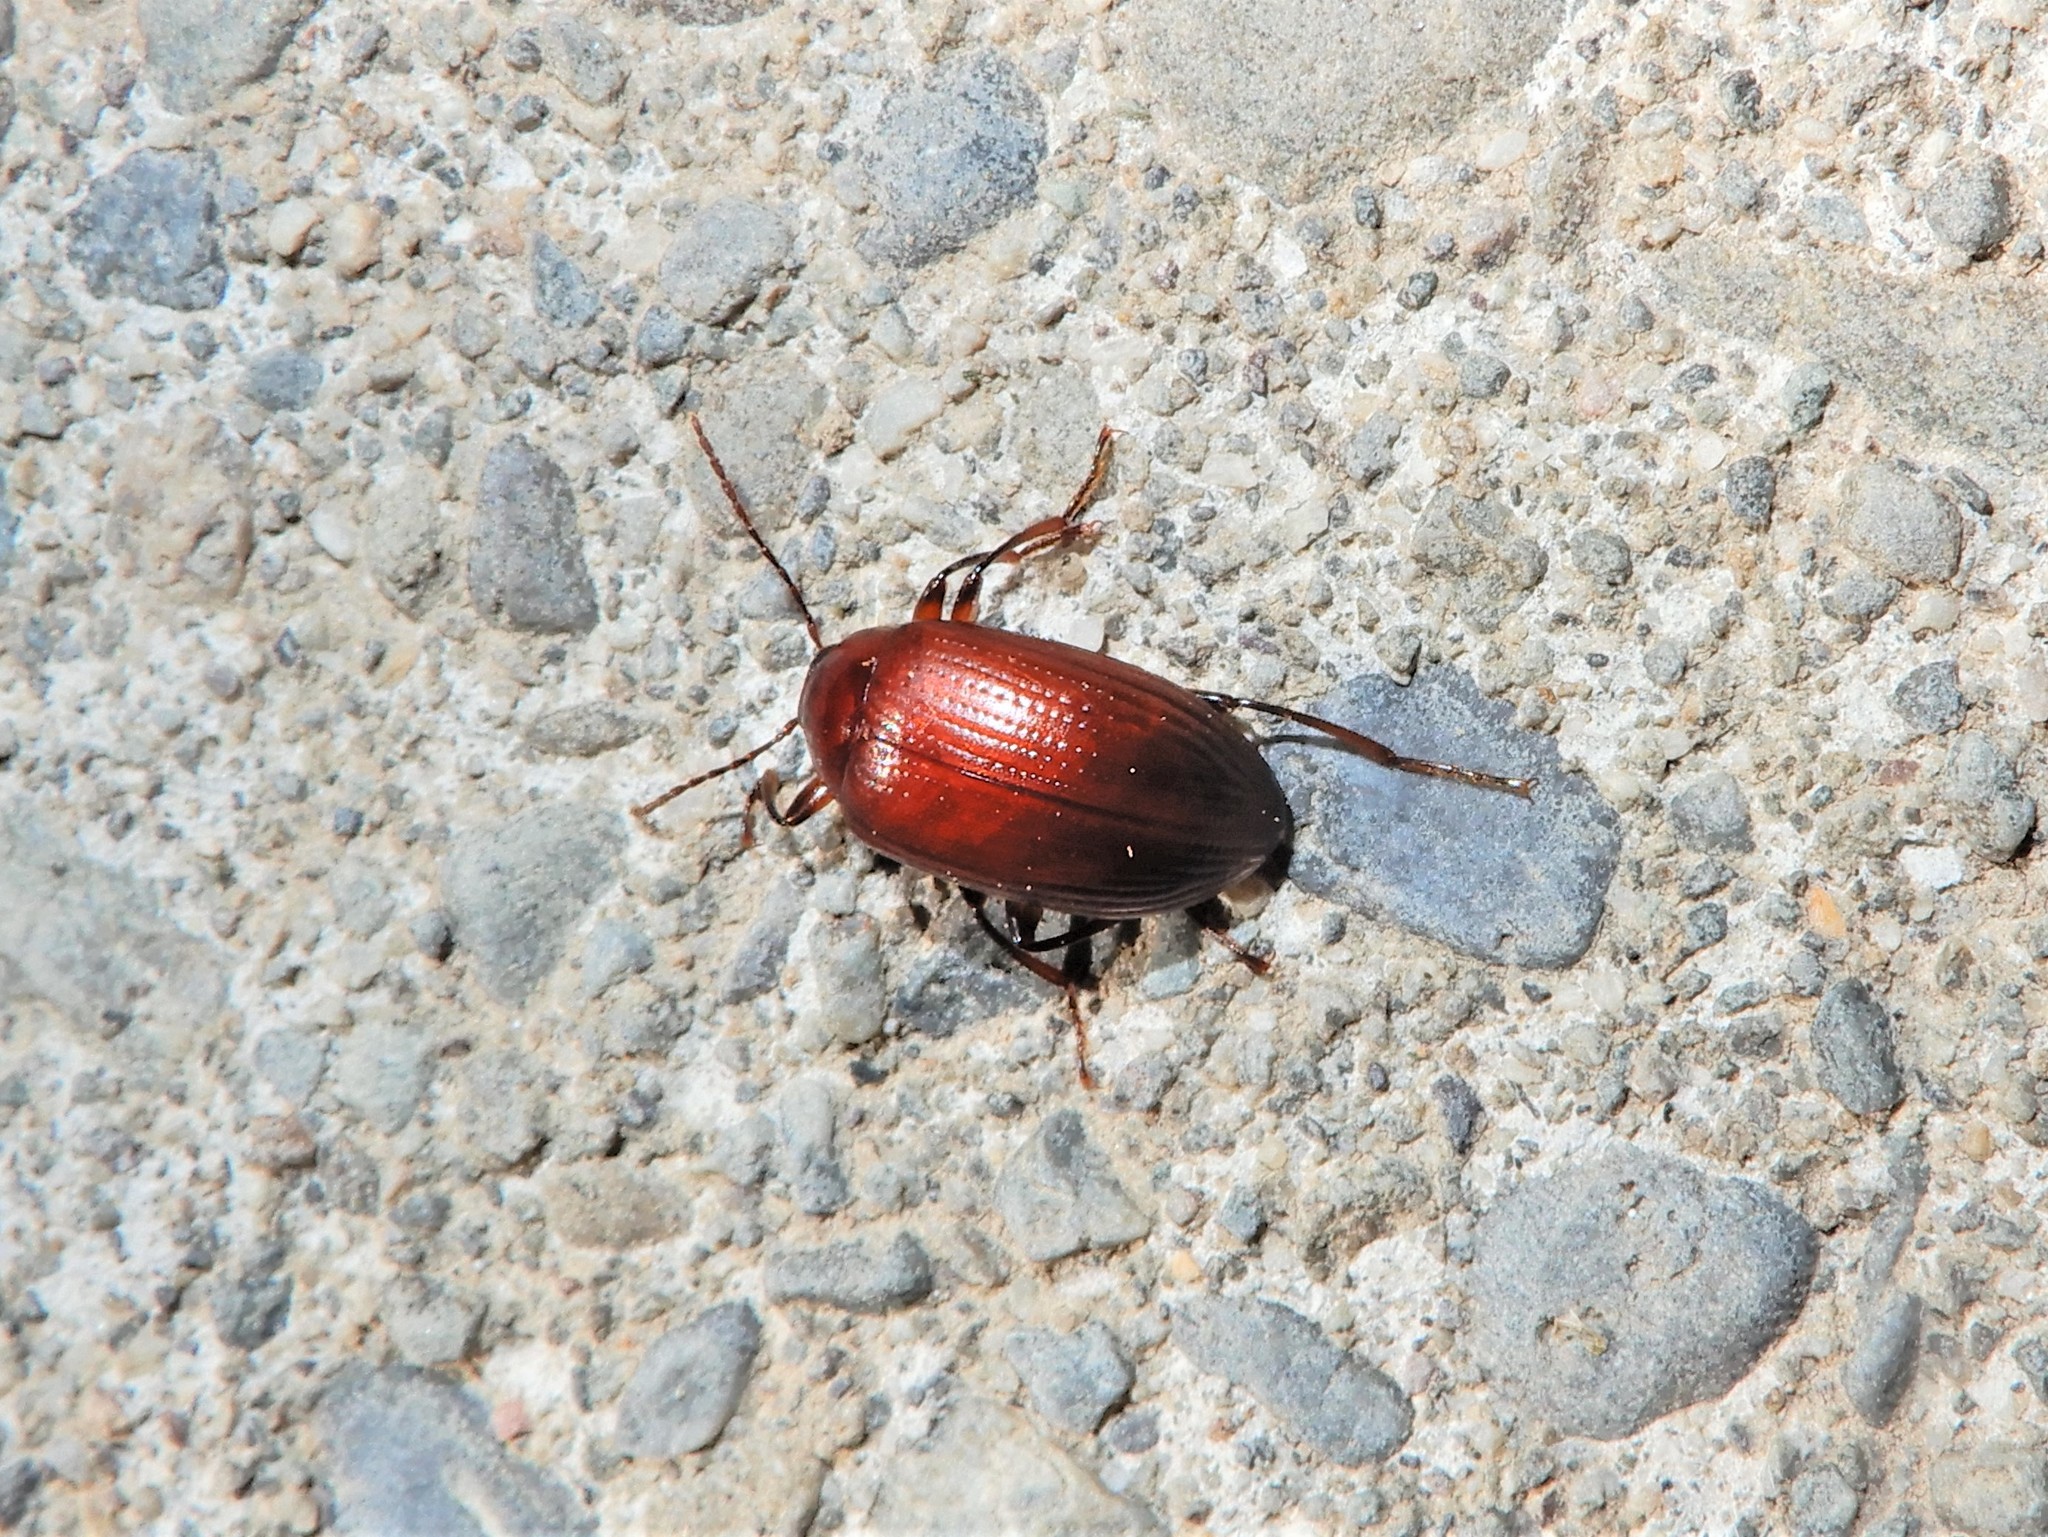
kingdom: Animalia
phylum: Arthropoda
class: Insecta
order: Coleoptera
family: Tenebrionidae
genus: Amarygmus
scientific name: Amarygmus
